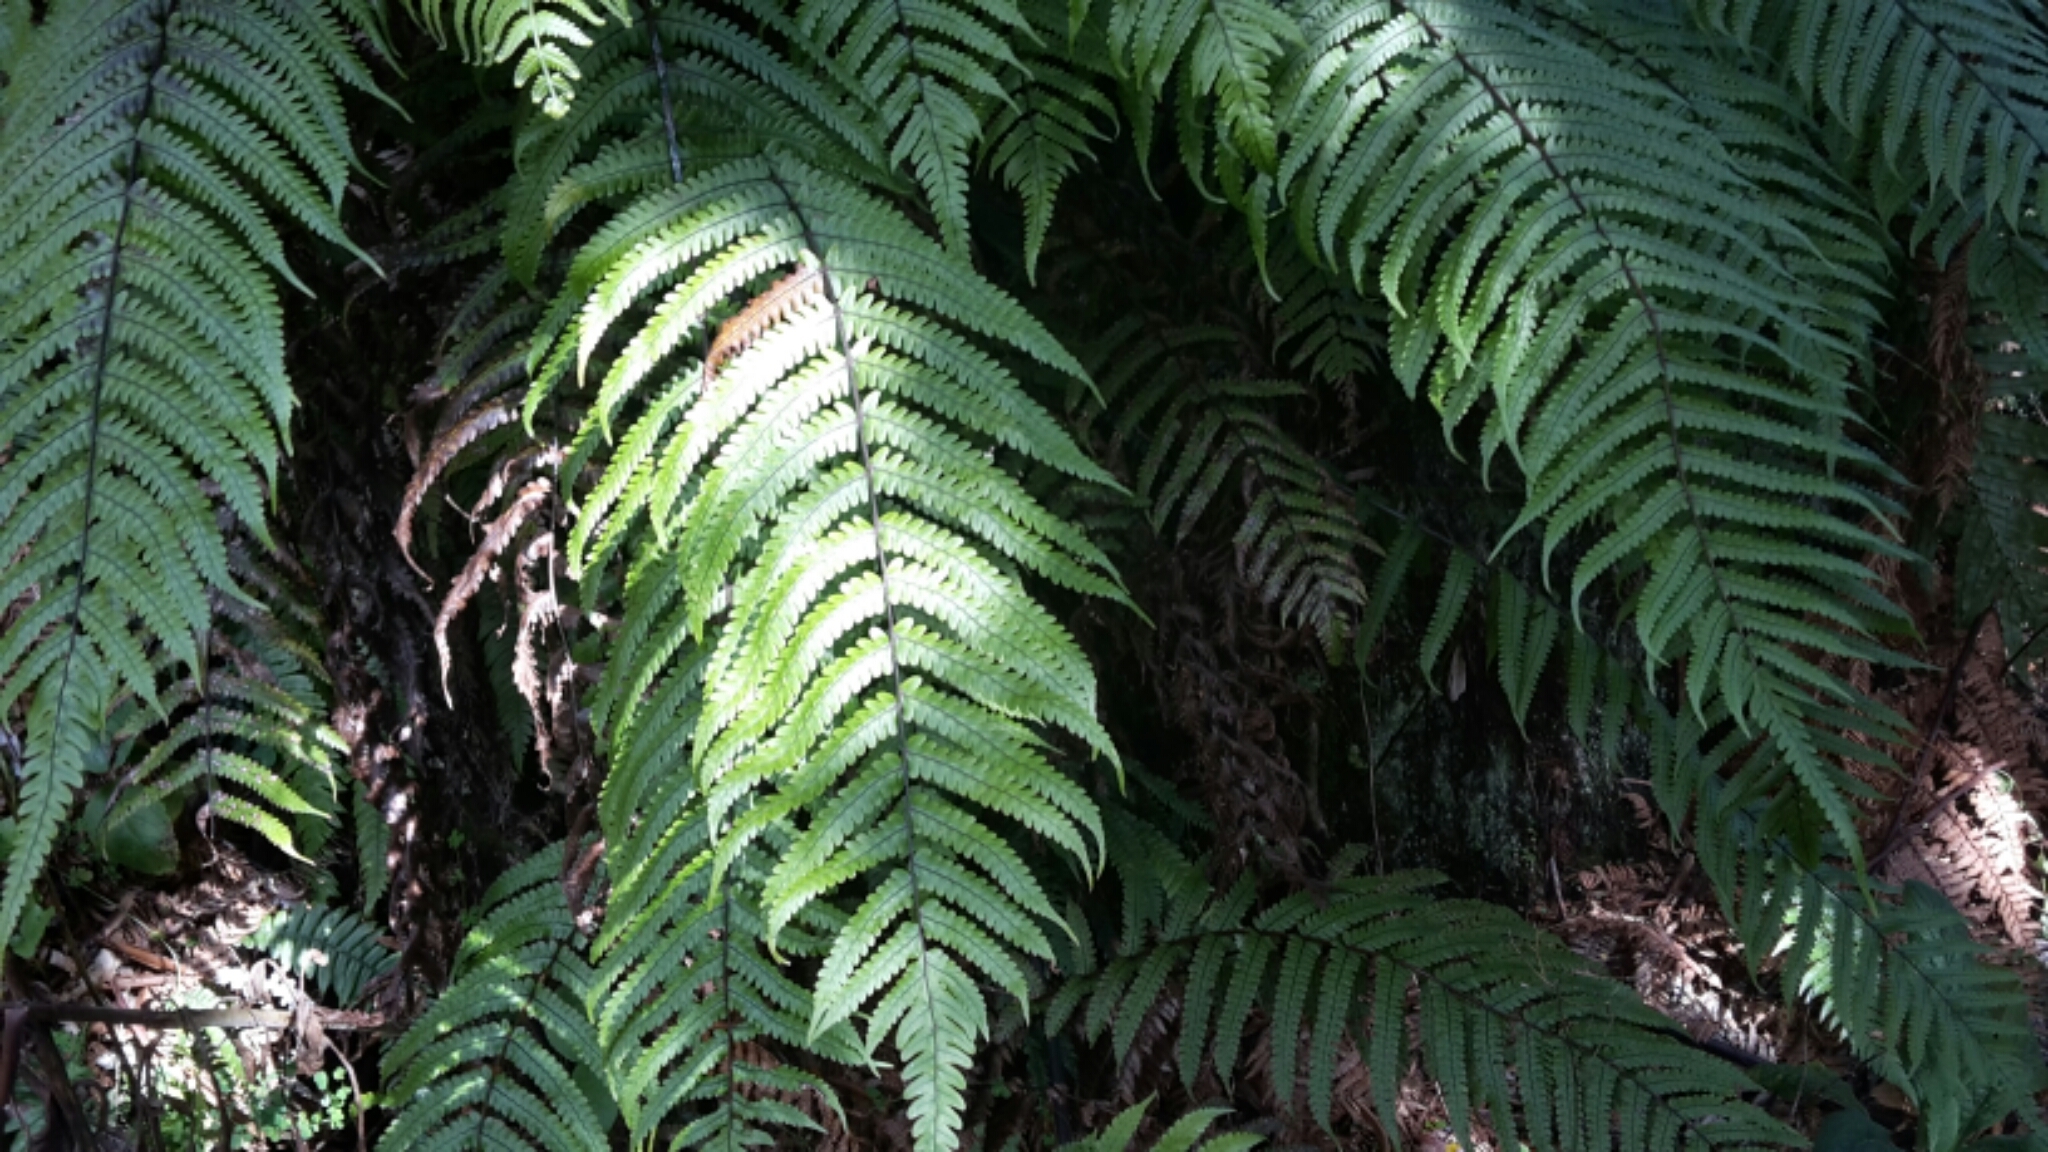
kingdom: Plantae
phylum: Tracheophyta
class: Polypodiopsida
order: Polypodiales
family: Thelypteridaceae
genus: Pakau
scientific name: Pakau pennigera
